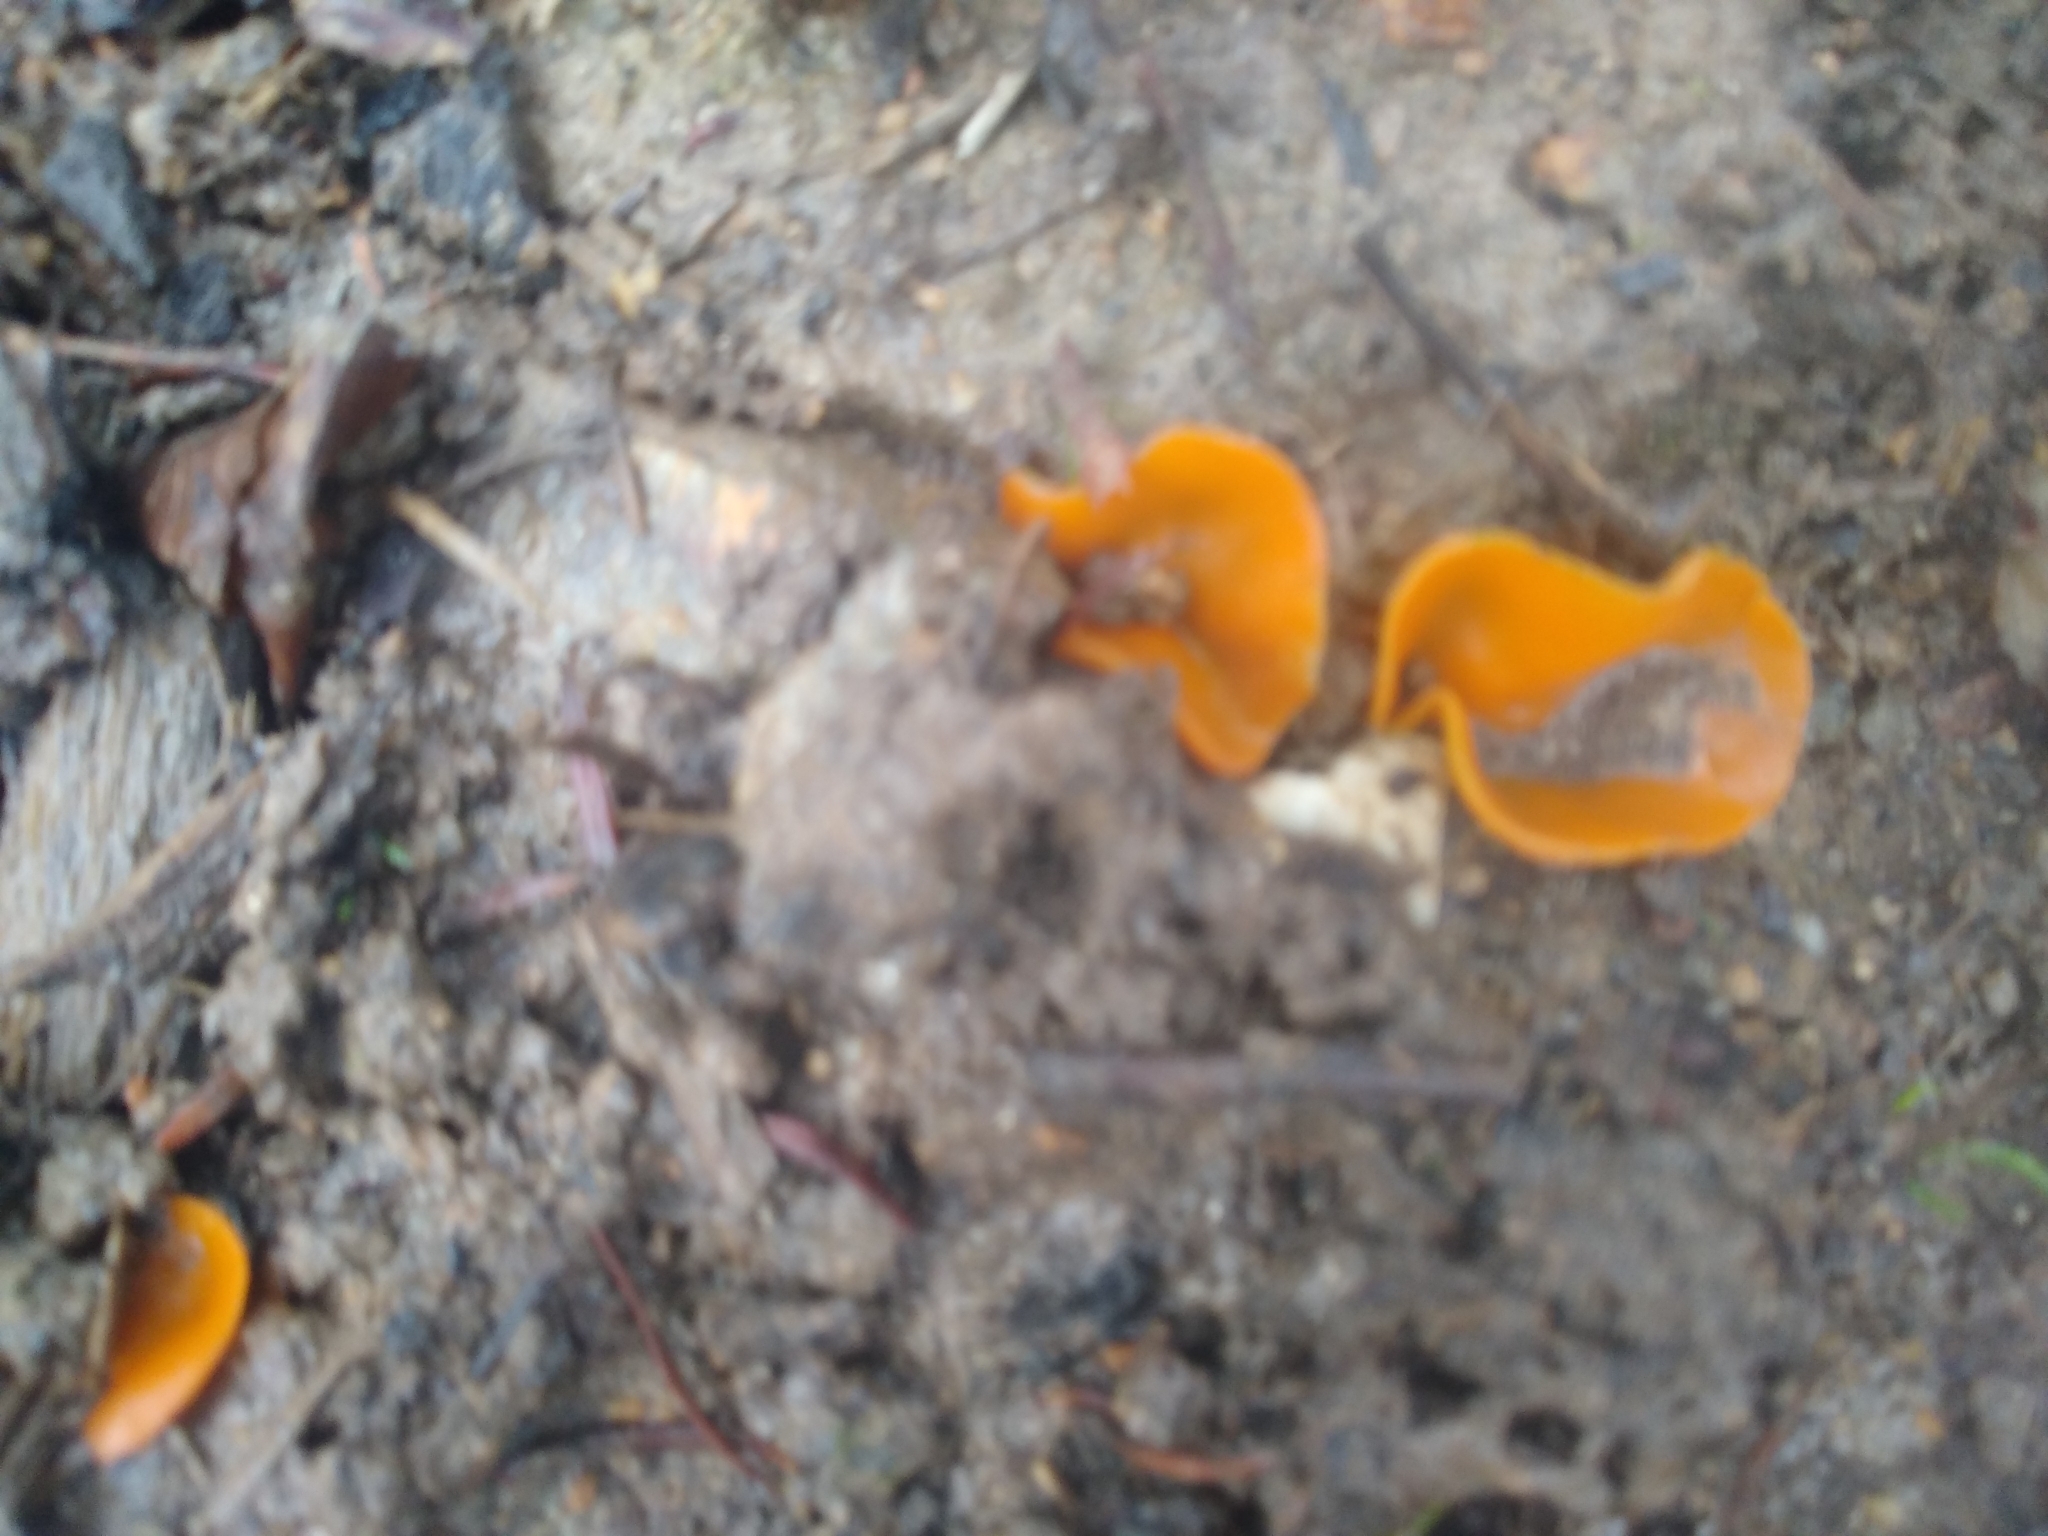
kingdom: Fungi
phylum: Ascomycota
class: Pezizomycetes
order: Pezizales
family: Pyronemataceae
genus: Aleuria
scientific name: Aleuria aurantia
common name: Orange peel fungus
